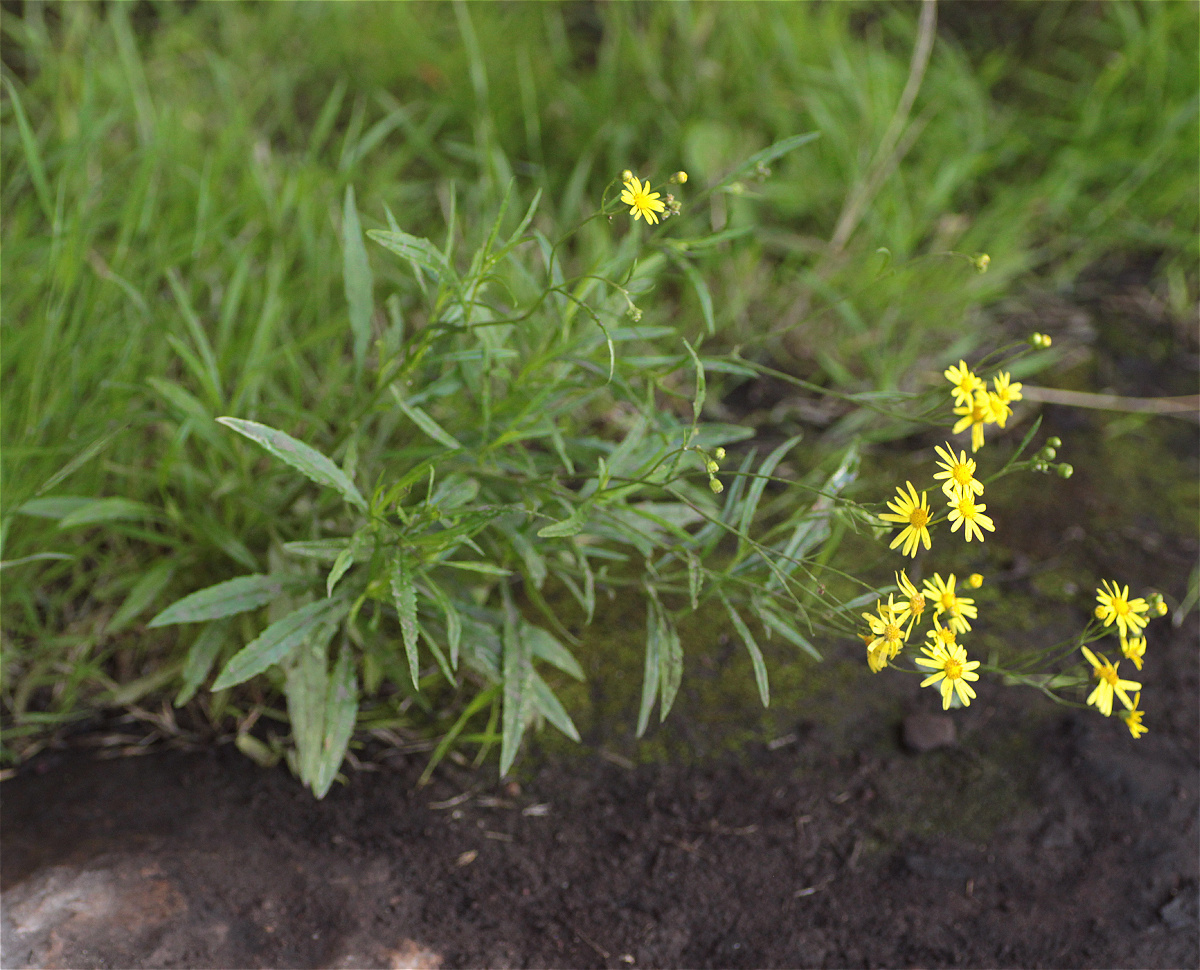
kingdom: Plantae
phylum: Tracheophyta
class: Magnoliopsida
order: Asterales
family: Asteraceae
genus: Senecio
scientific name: Senecio madagascariensis
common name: Madagascar ragwort
